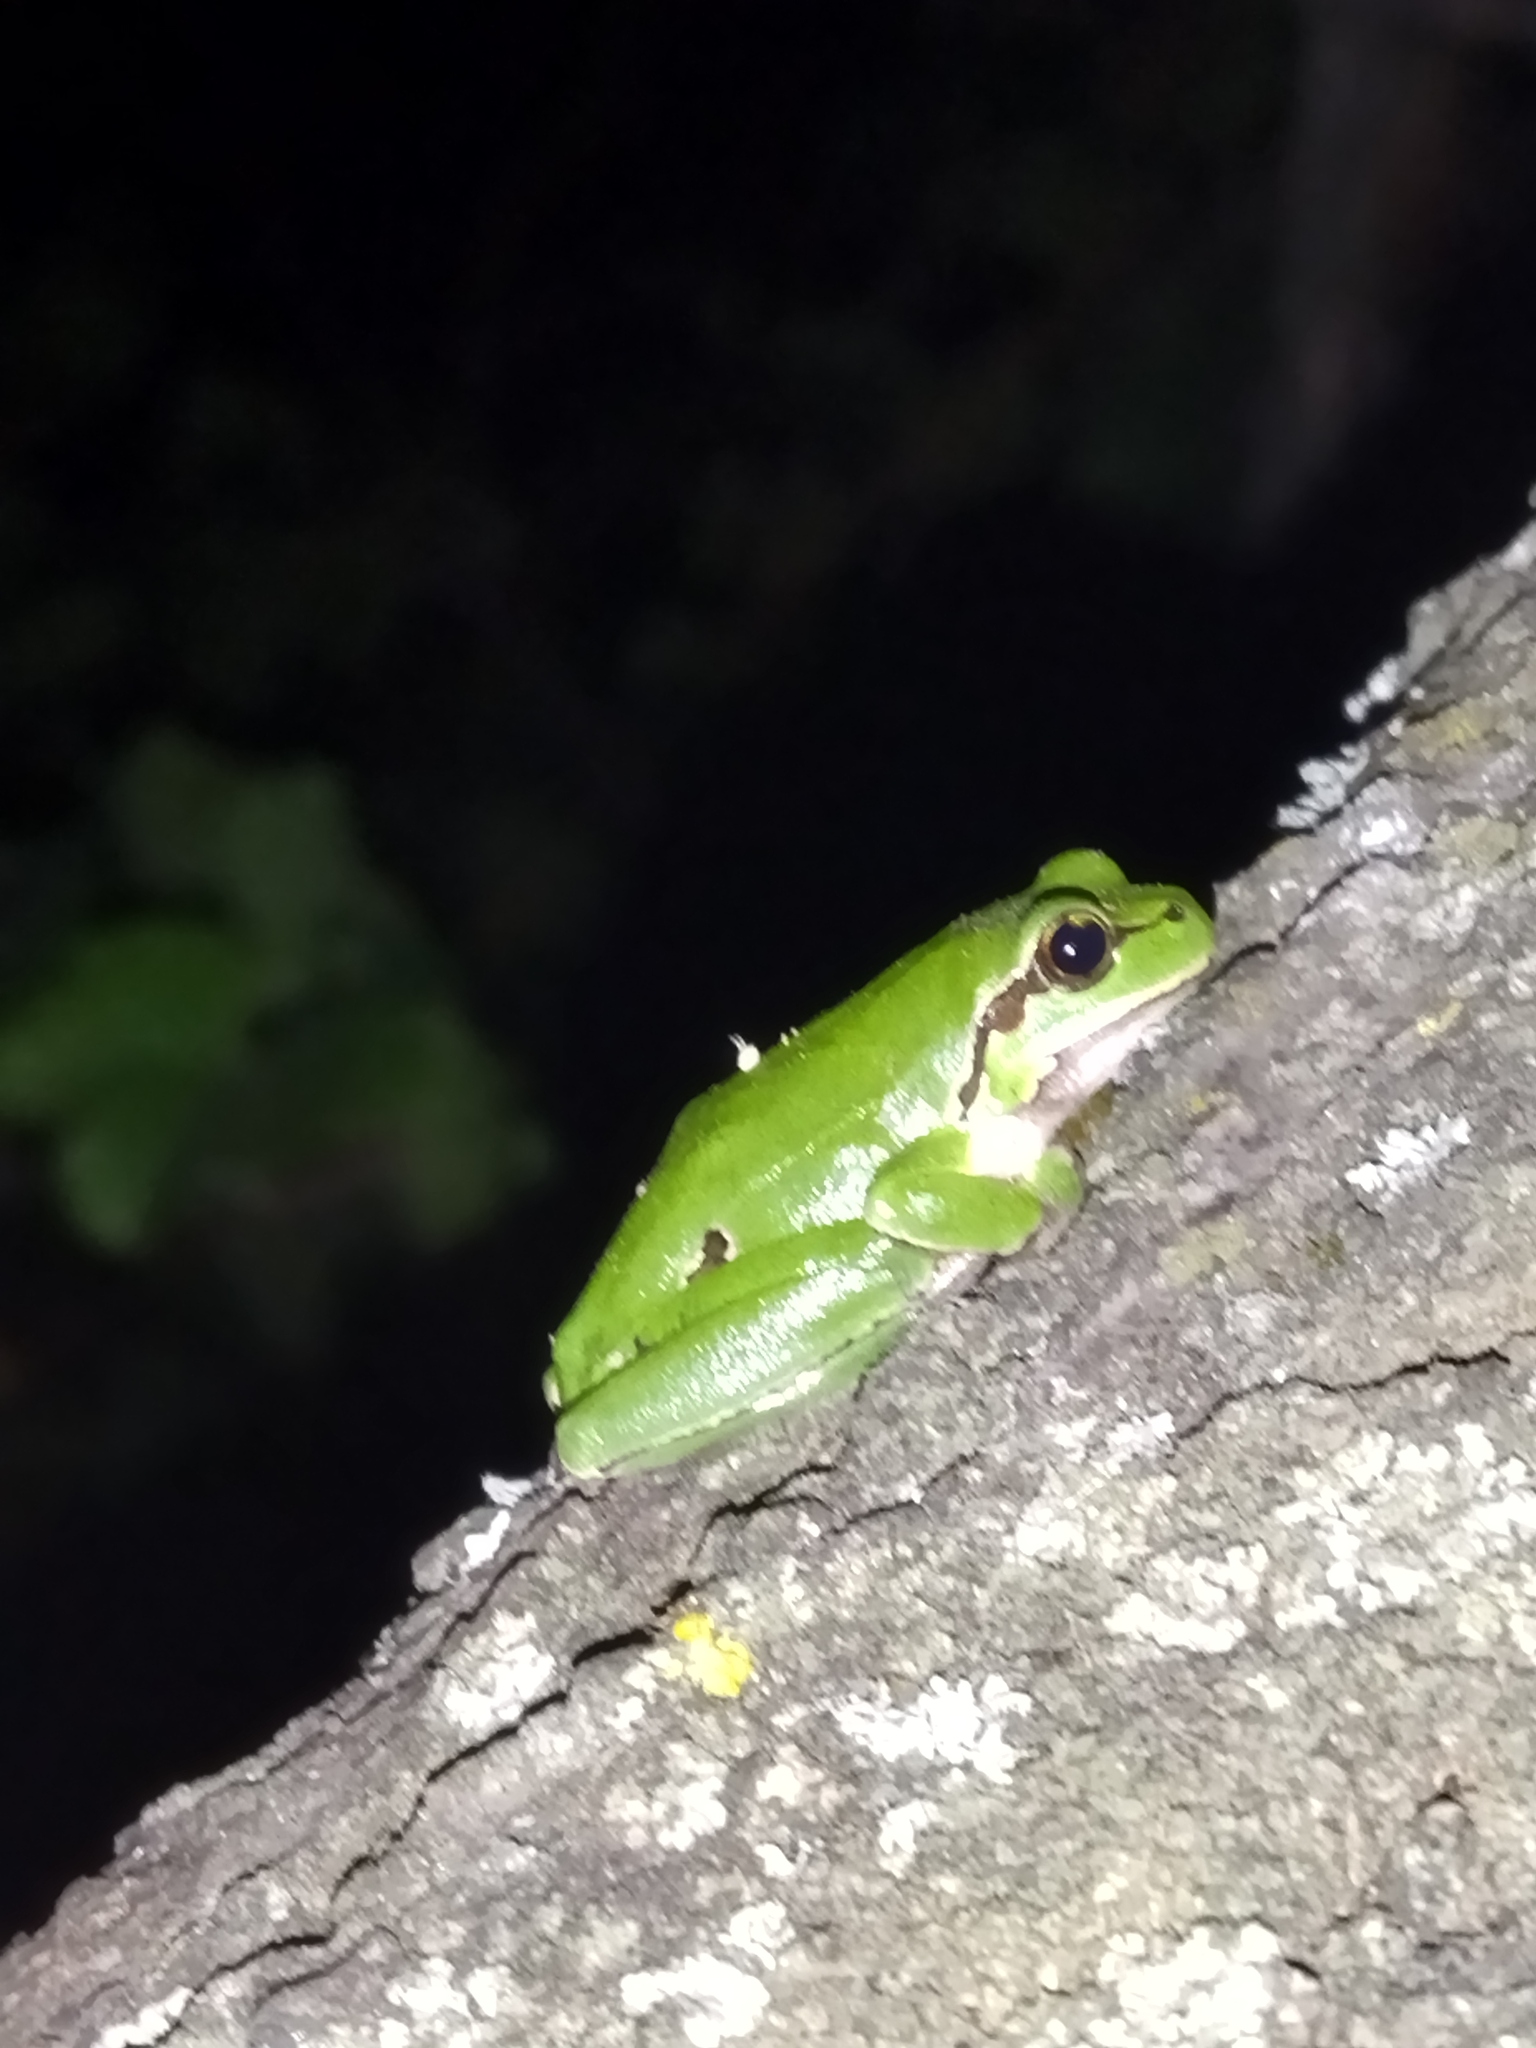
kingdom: Animalia
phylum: Chordata
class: Amphibia
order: Anura
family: Hylidae
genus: Hyla
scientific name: Hyla orientalis
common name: Caucasian treefrog
